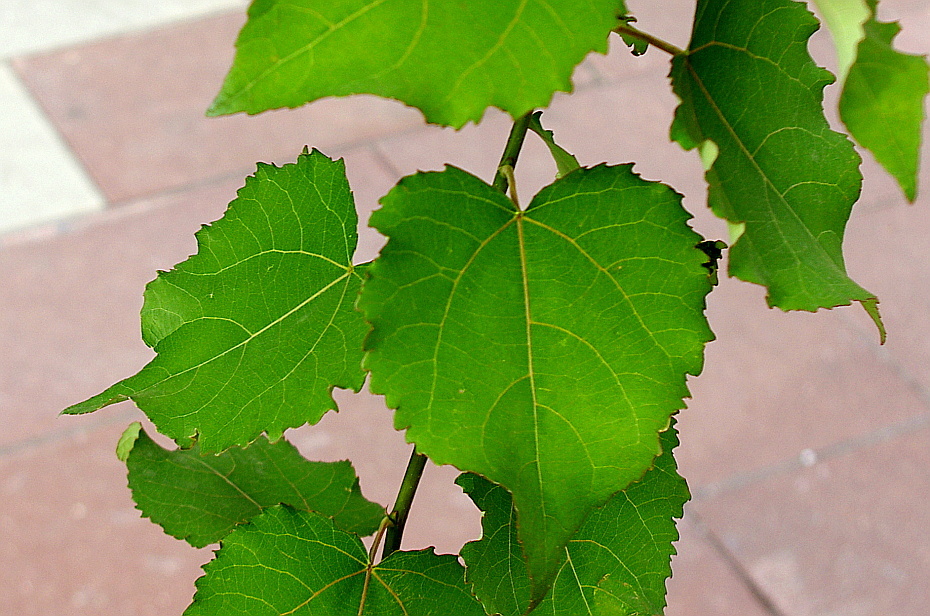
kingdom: Plantae
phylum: Tracheophyta
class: Magnoliopsida
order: Malpighiales
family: Salicaceae
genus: Populus
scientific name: Populus tremula
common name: European aspen
